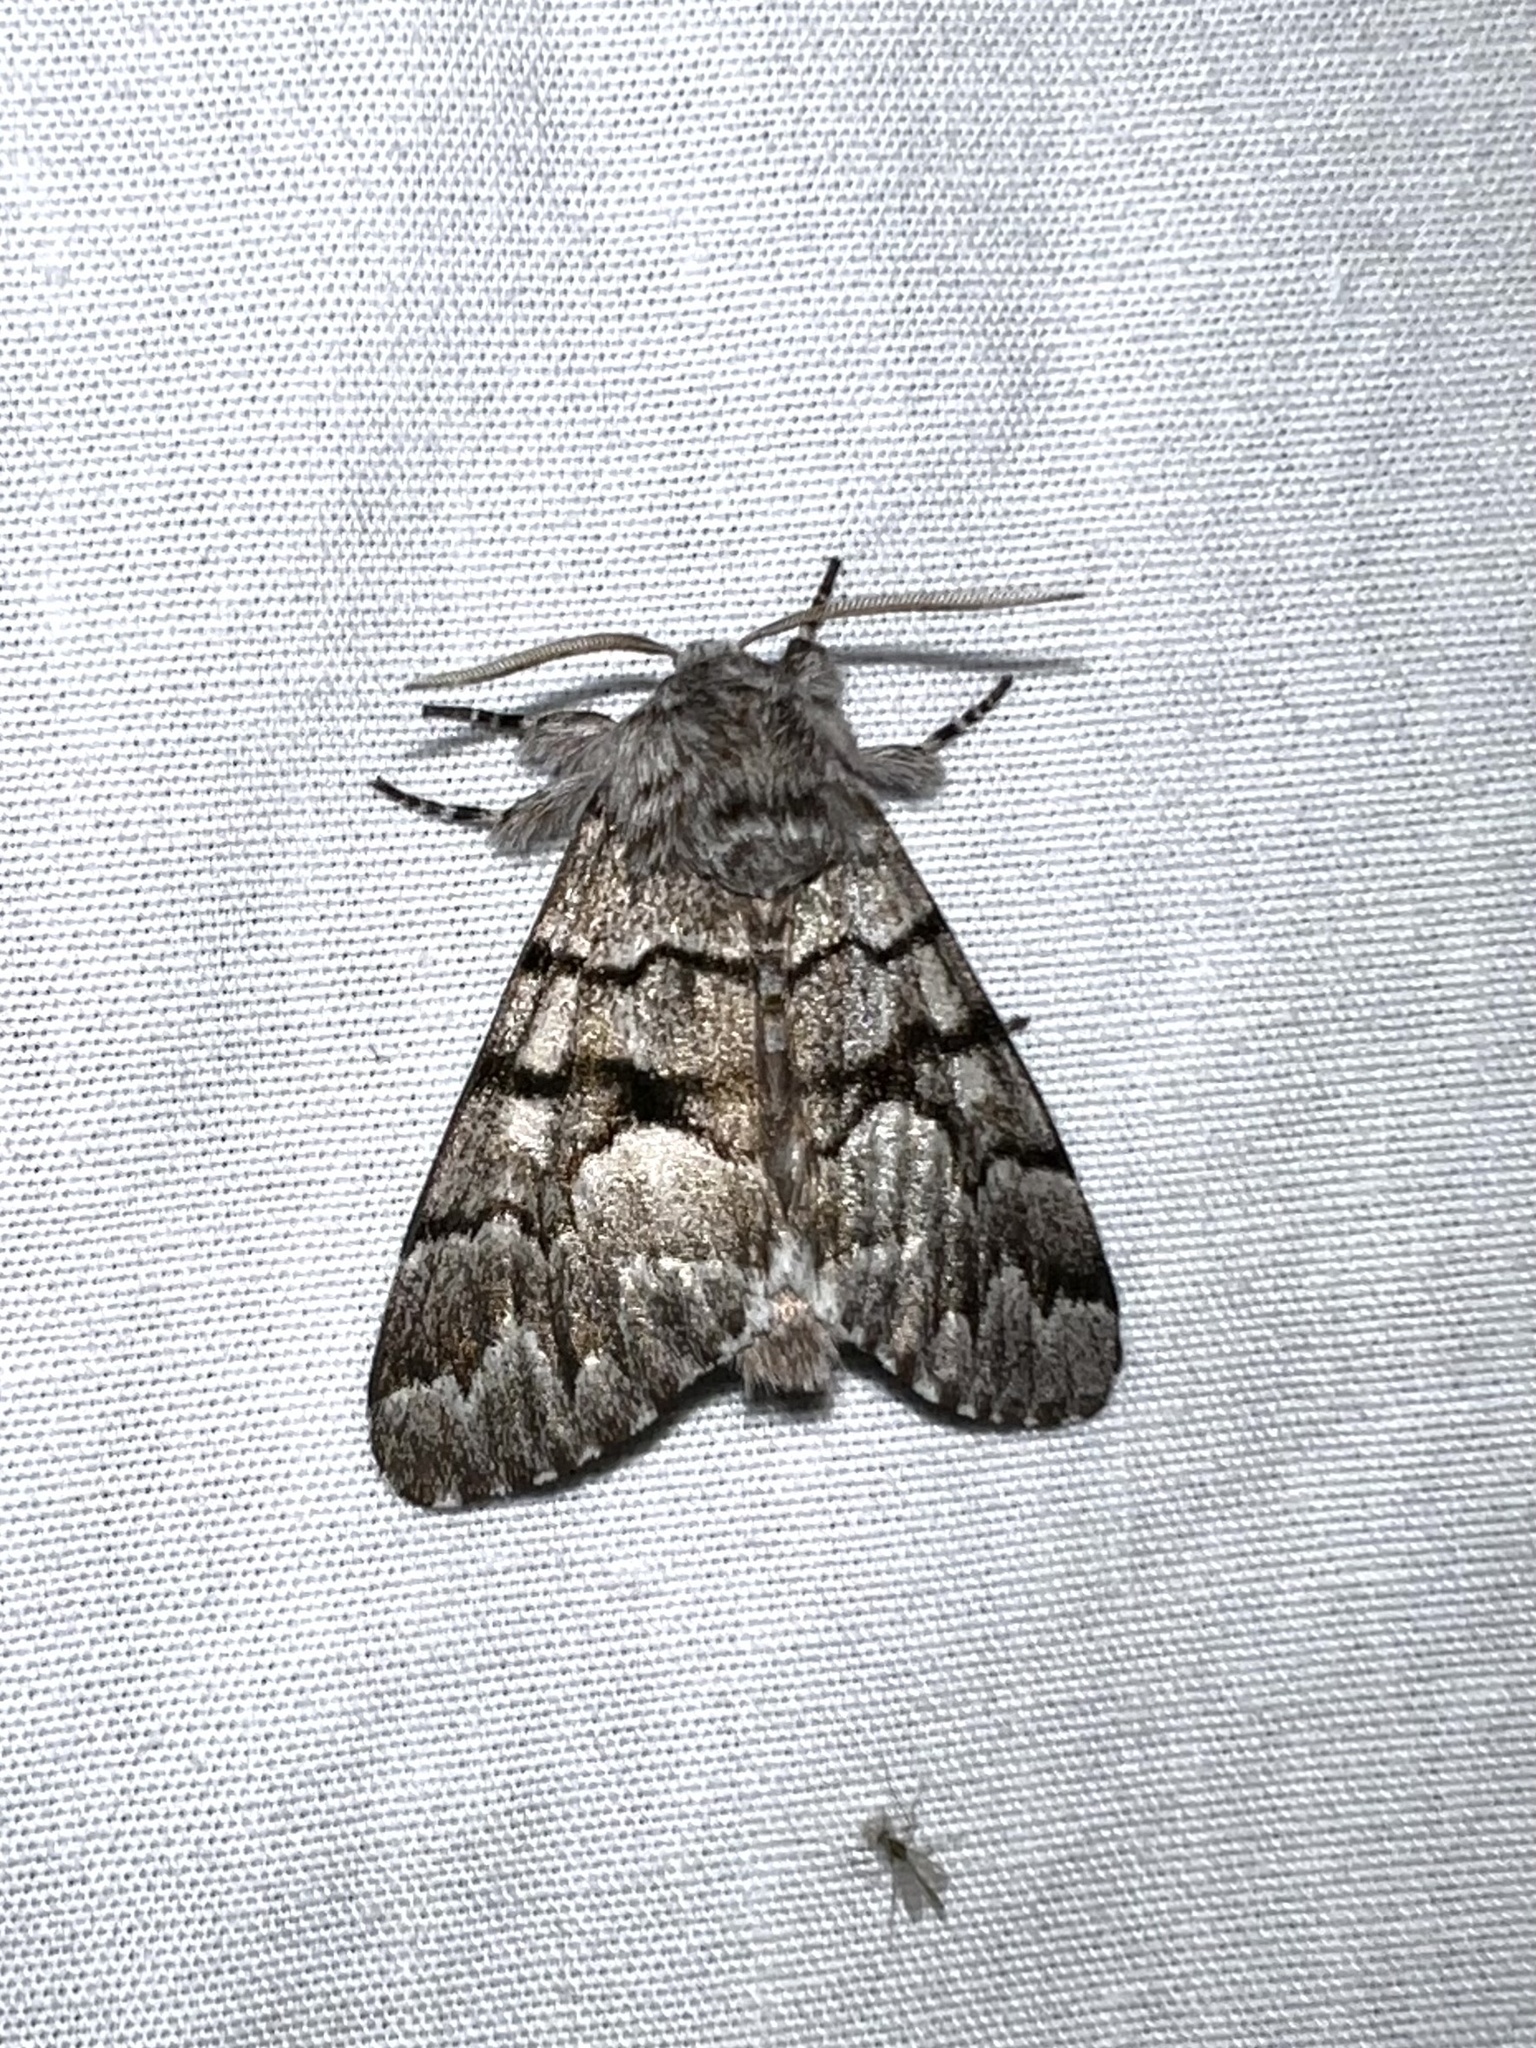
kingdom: Animalia
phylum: Arthropoda
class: Insecta
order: Lepidoptera
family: Noctuidae
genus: Panthea
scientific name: Panthea furcilla
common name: Eastern panthea moth
